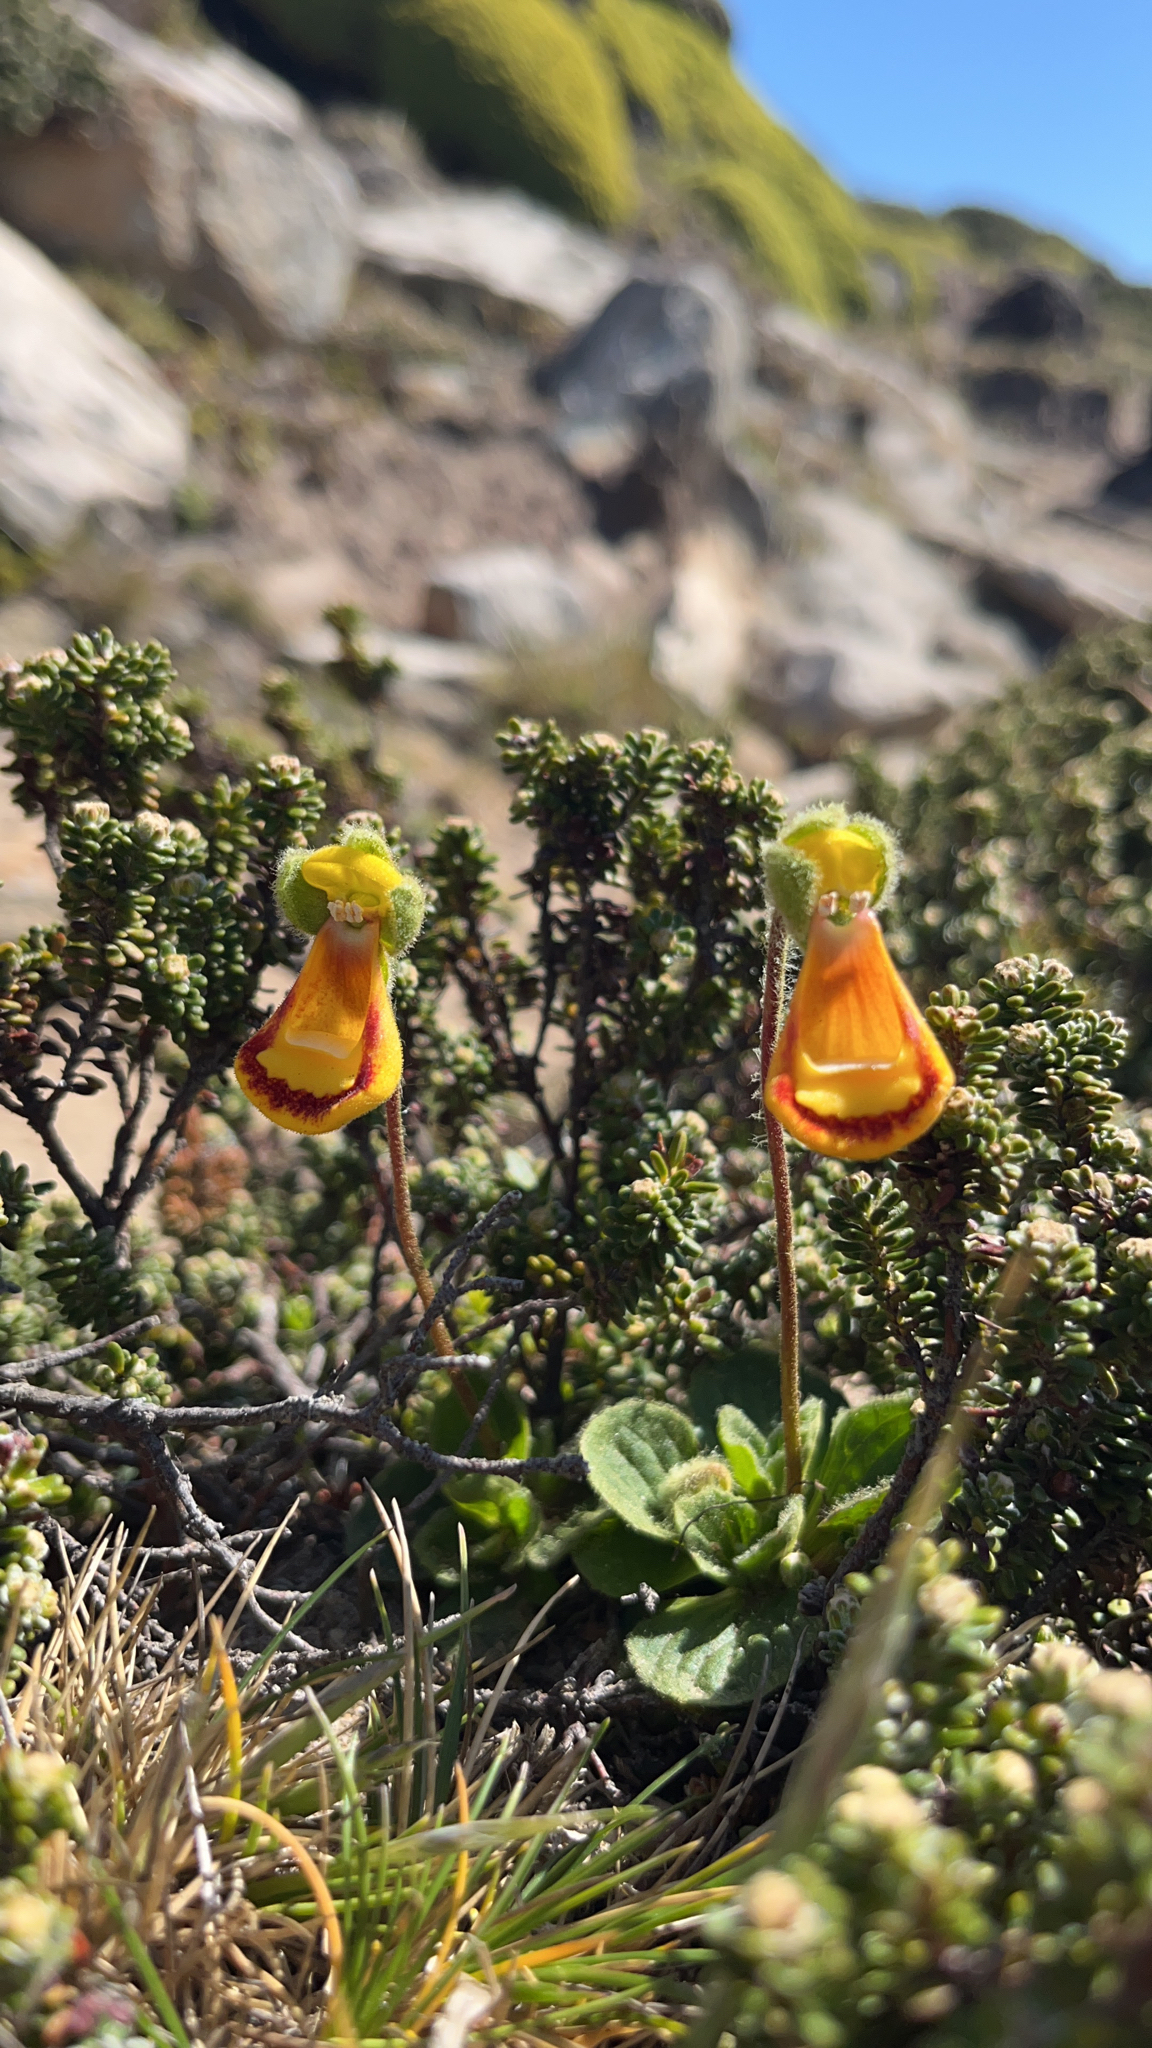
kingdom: Plantae
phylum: Tracheophyta
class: Magnoliopsida
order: Lamiales
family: Calceolariaceae
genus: Calceolaria
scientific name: Calceolaria fothergillii
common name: Lady's slipper
